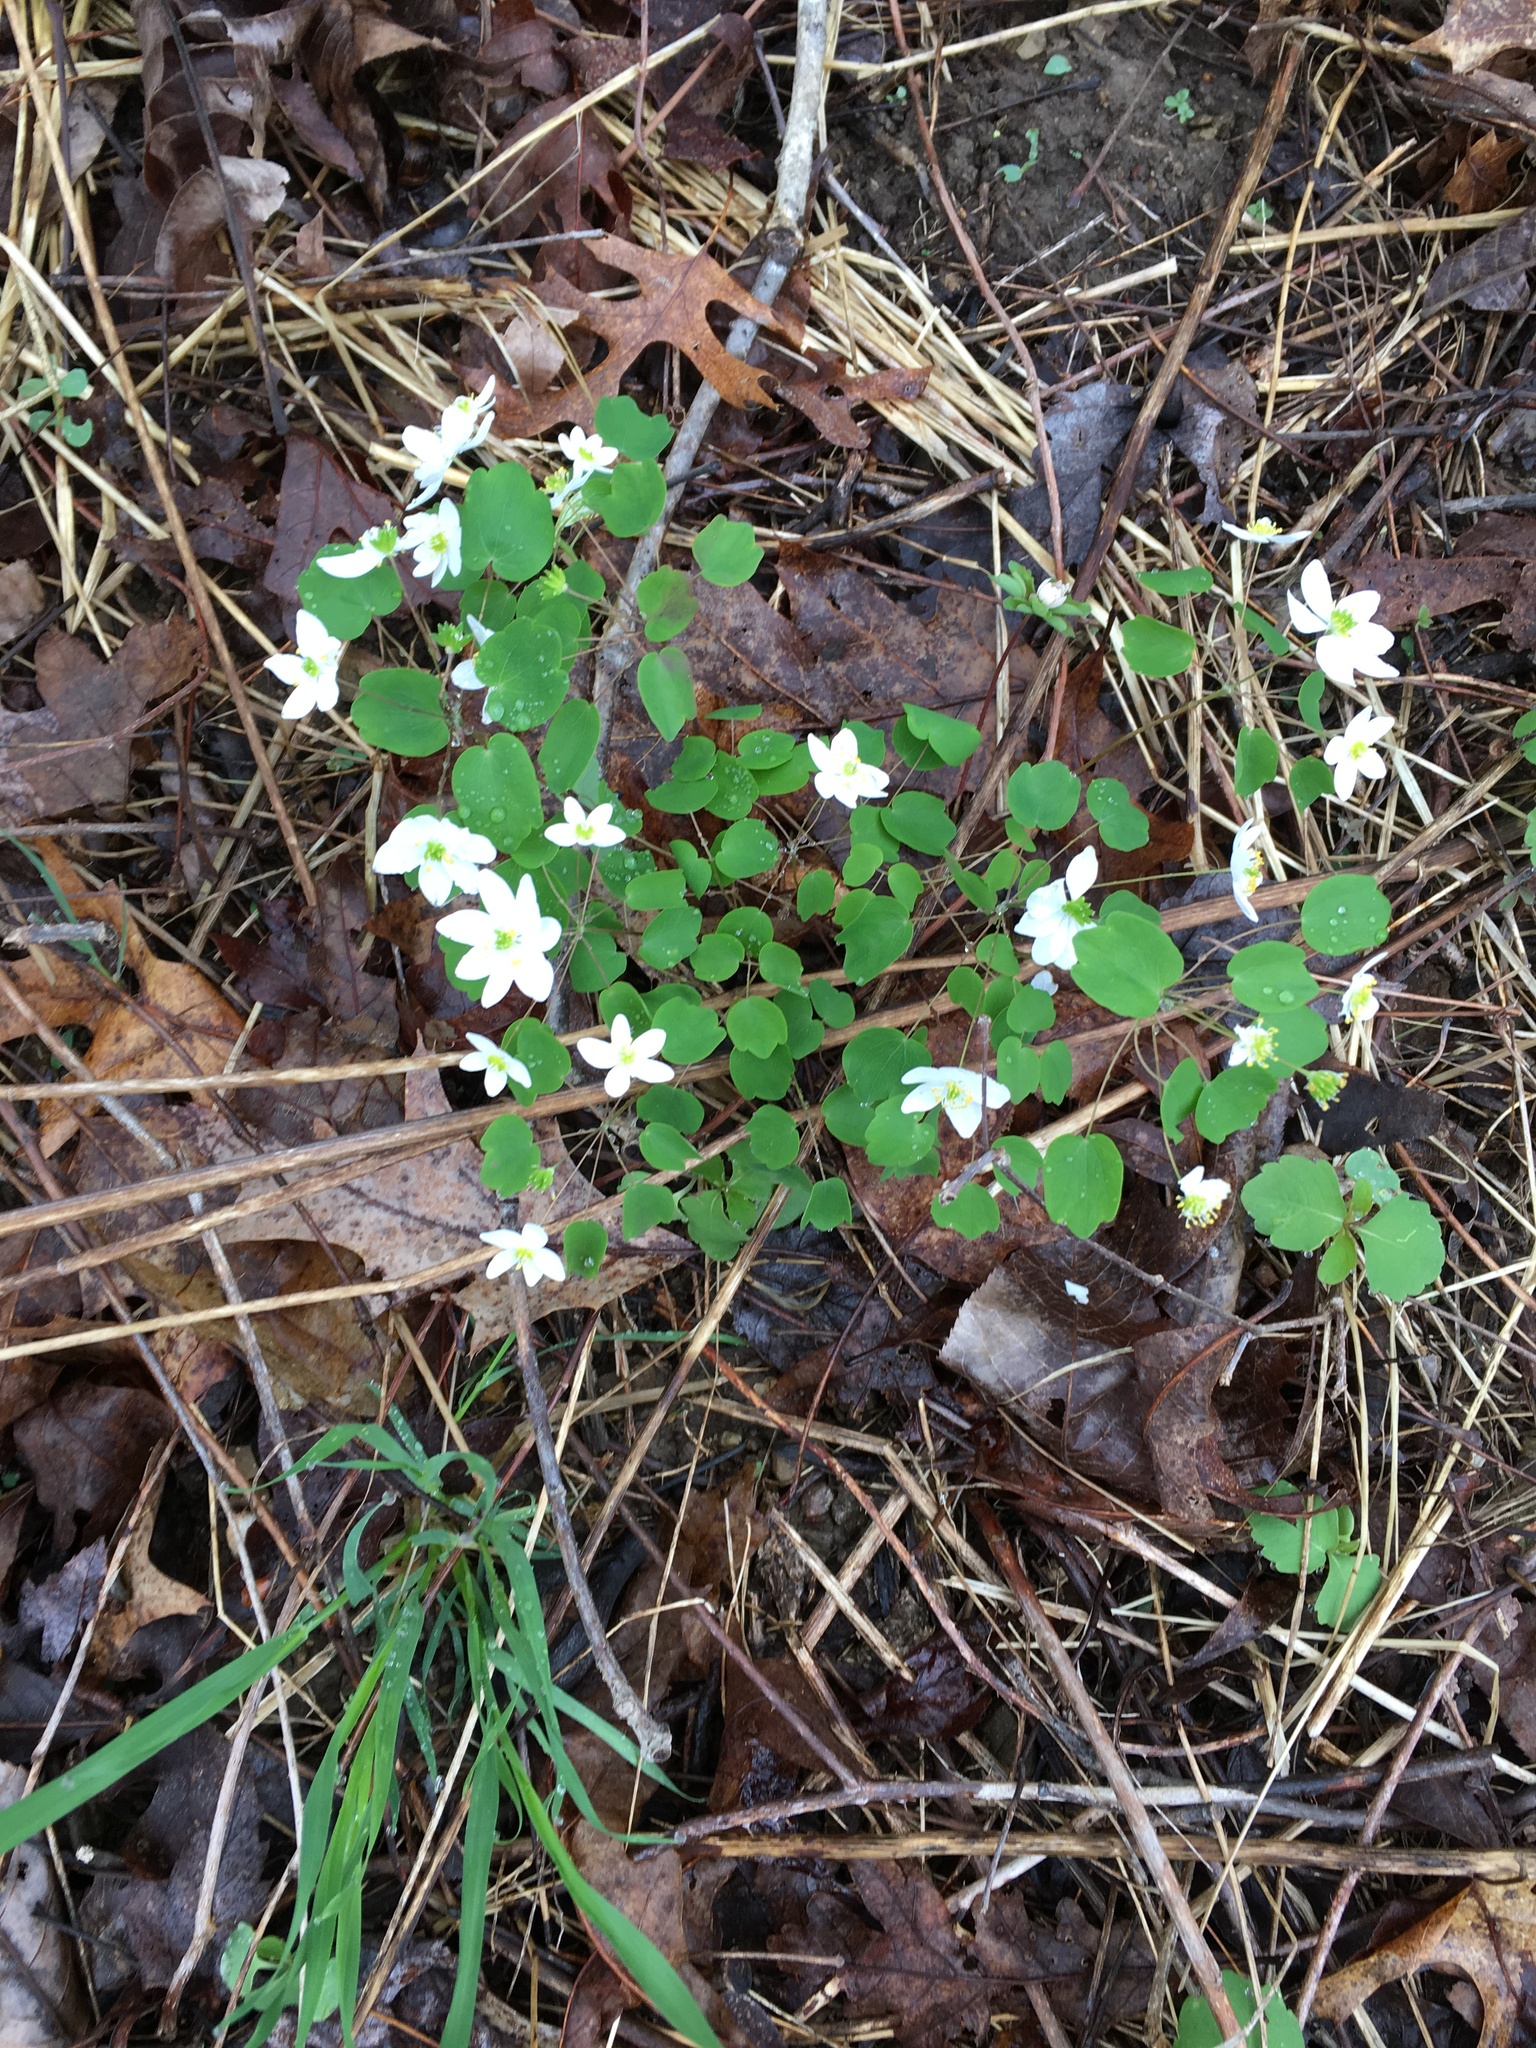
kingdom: Plantae
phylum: Tracheophyta
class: Magnoliopsida
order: Ranunculales
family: Ranunculaceae
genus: Thalictrum
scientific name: Thalictrum thalictroides
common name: Rue-anemone
